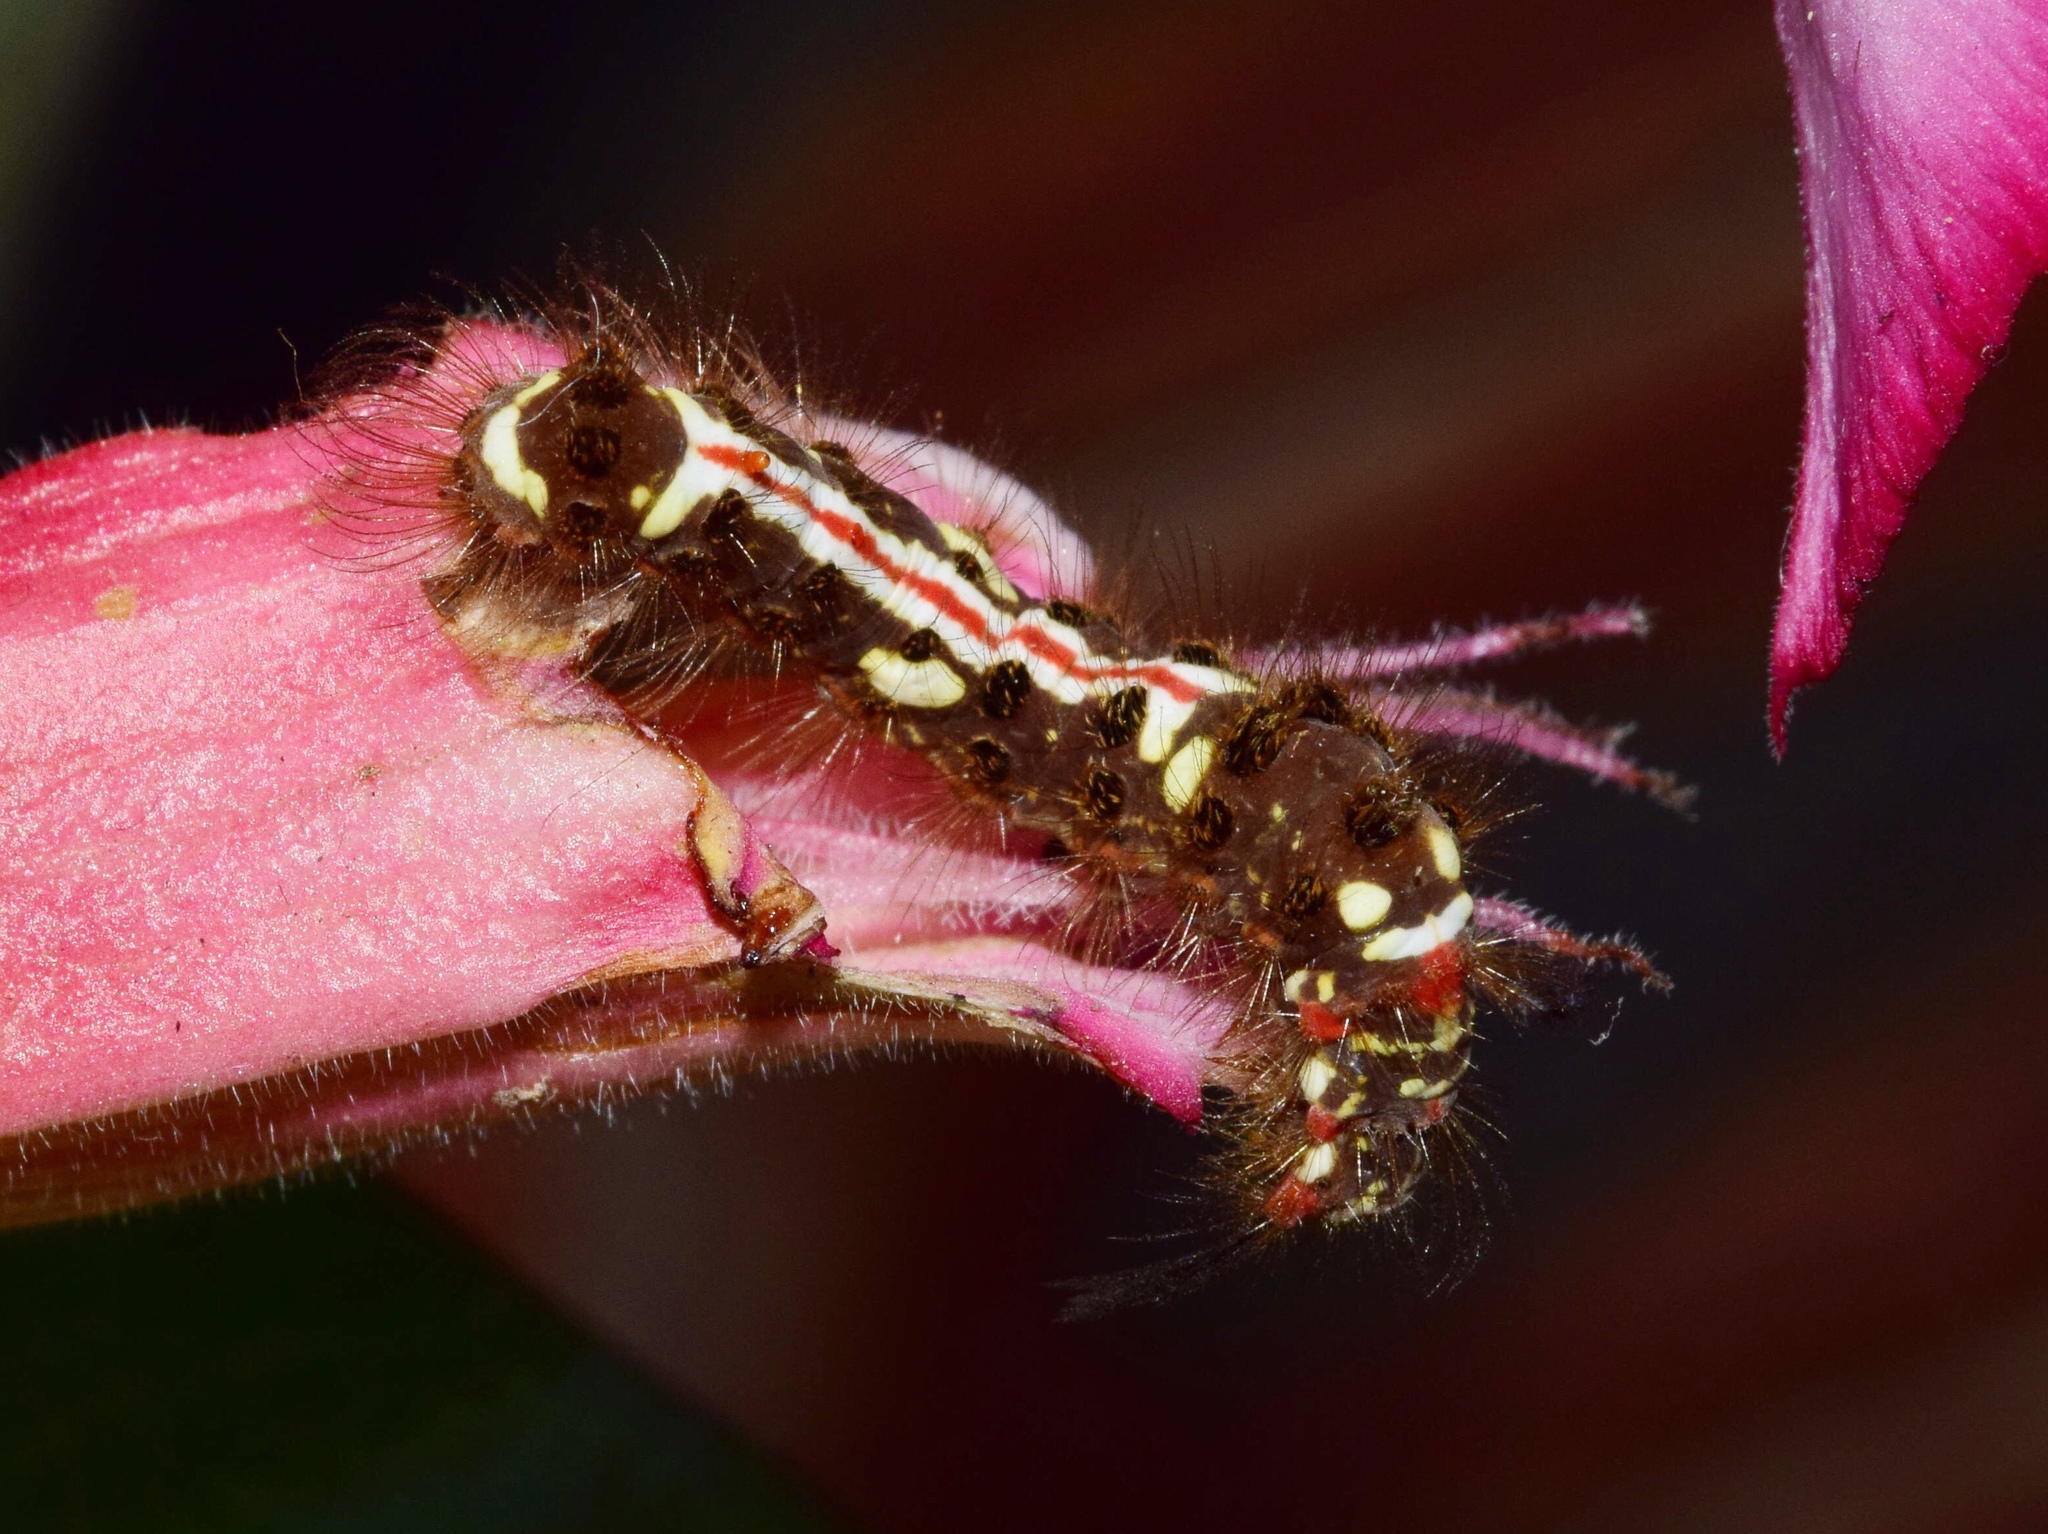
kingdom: Animalia
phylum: Arthropoda
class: Insecta
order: Lepidoptera
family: Erebidae
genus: Euproctis
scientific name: Euproctis aethiopica
